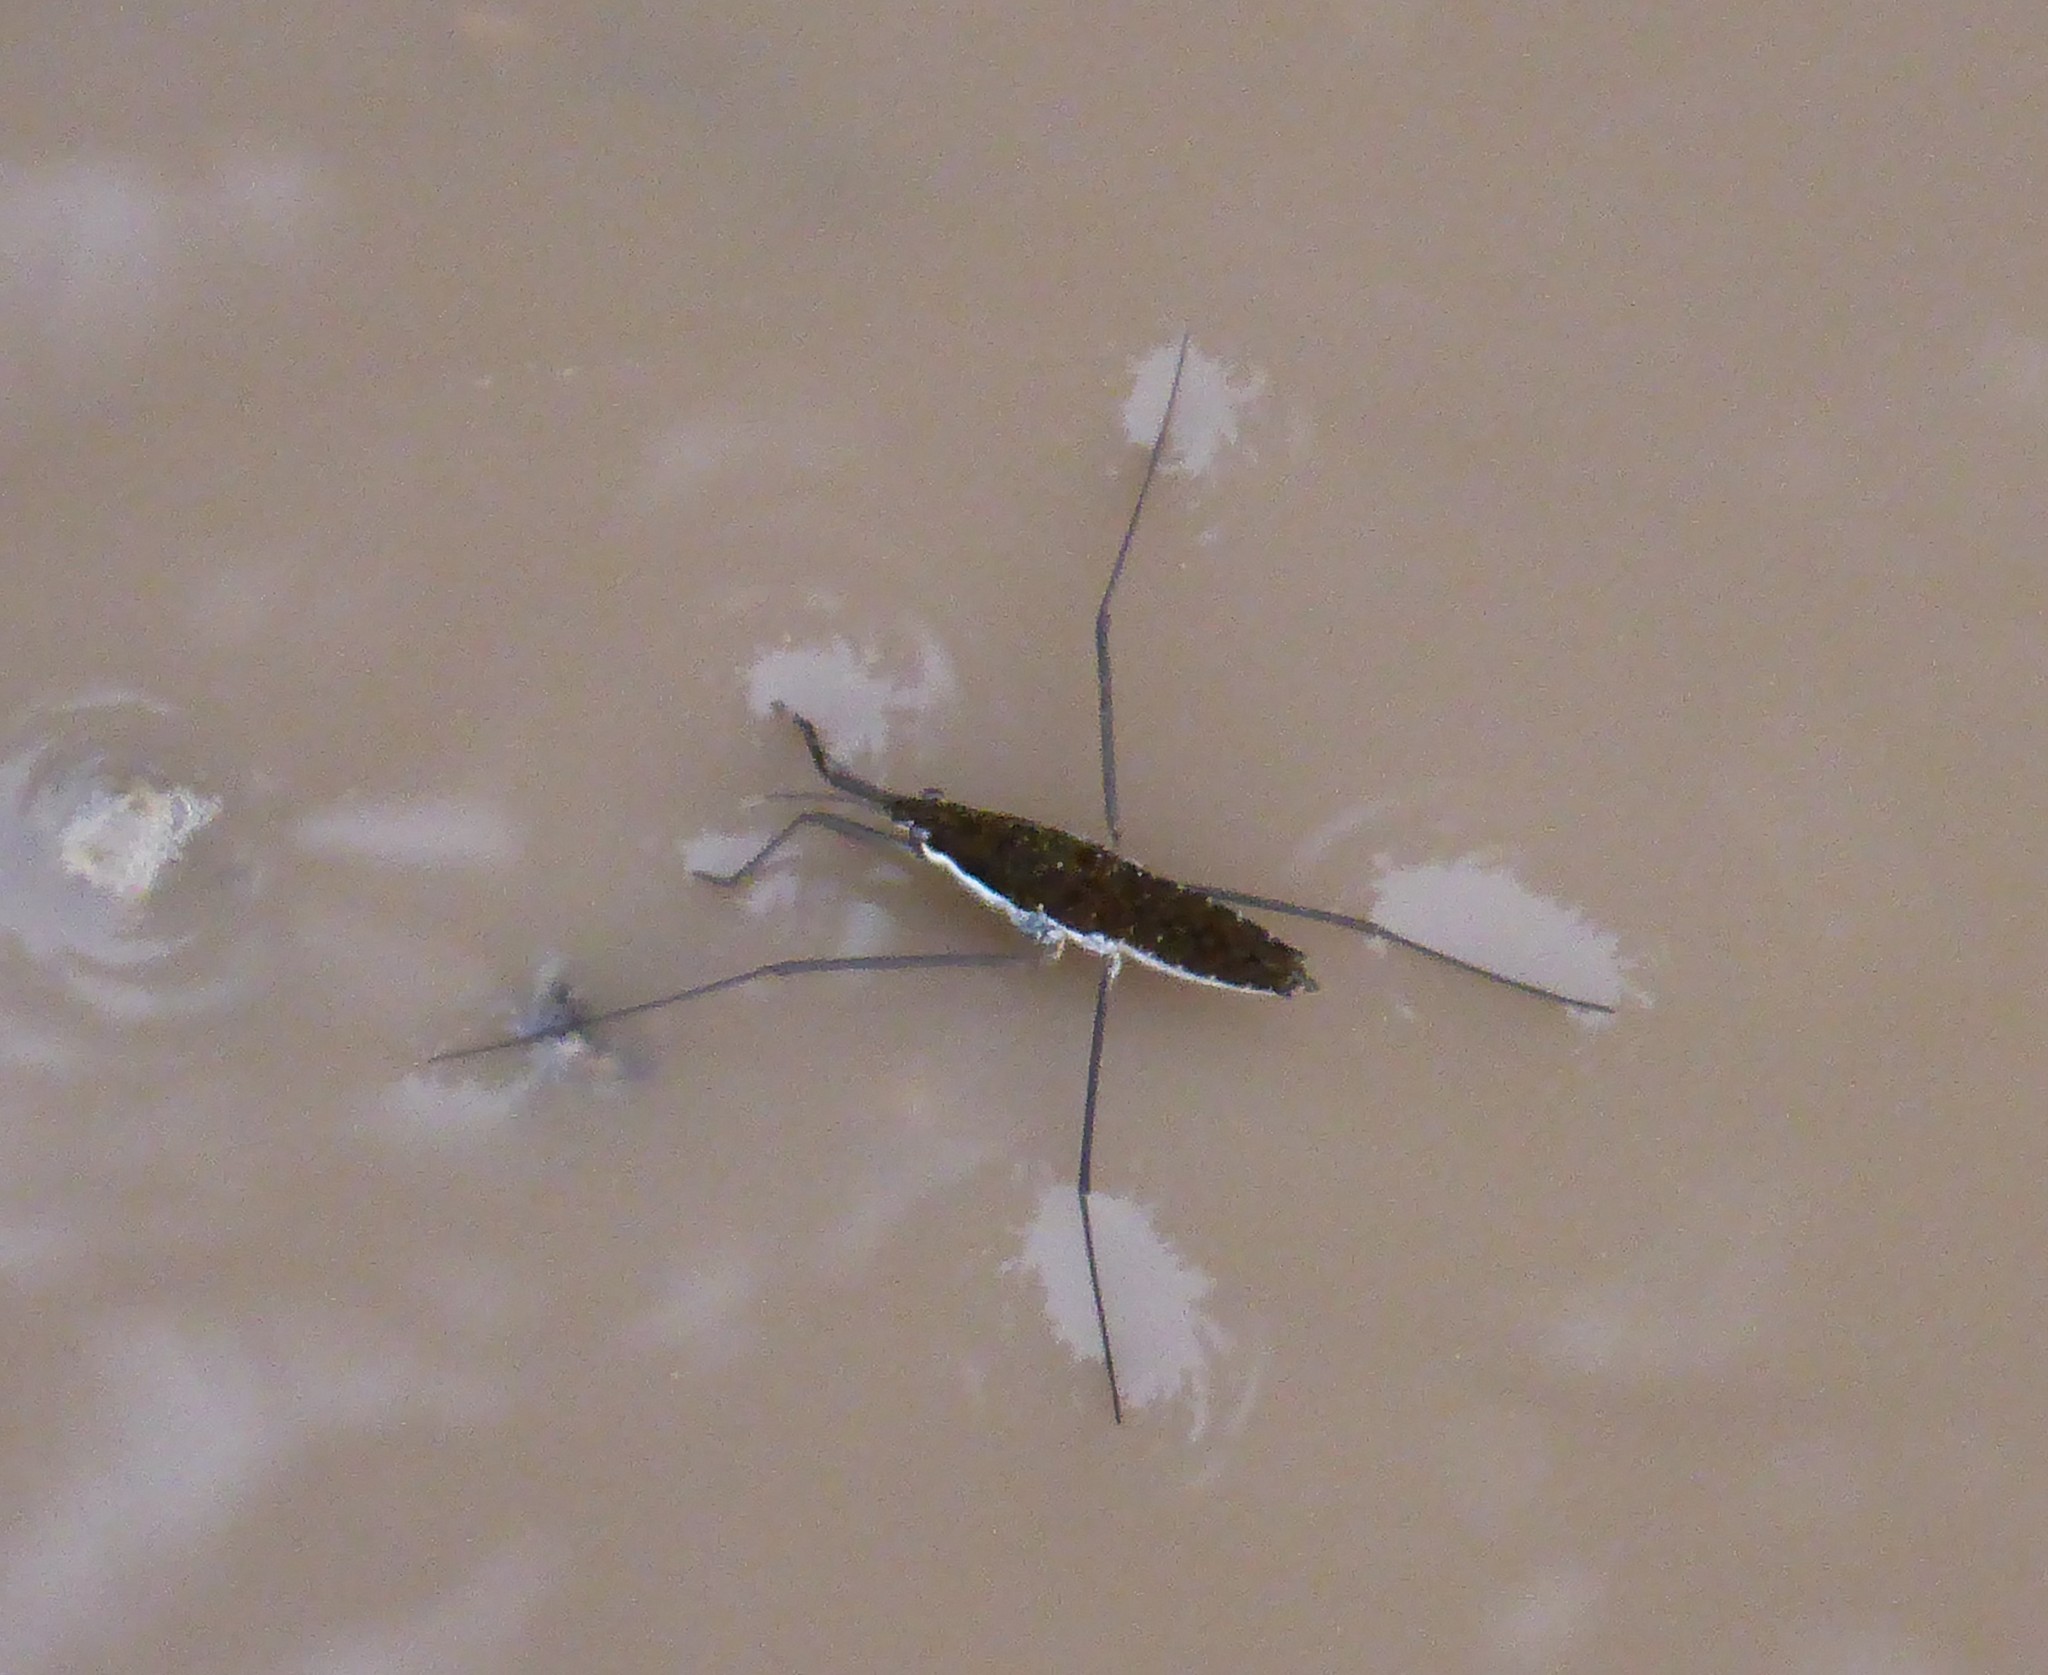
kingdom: Animalia
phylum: Arthropoda
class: Insecta
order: Hemiptera
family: Gerridae
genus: Aquarius
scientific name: Aquarius remigis
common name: Common water strider
